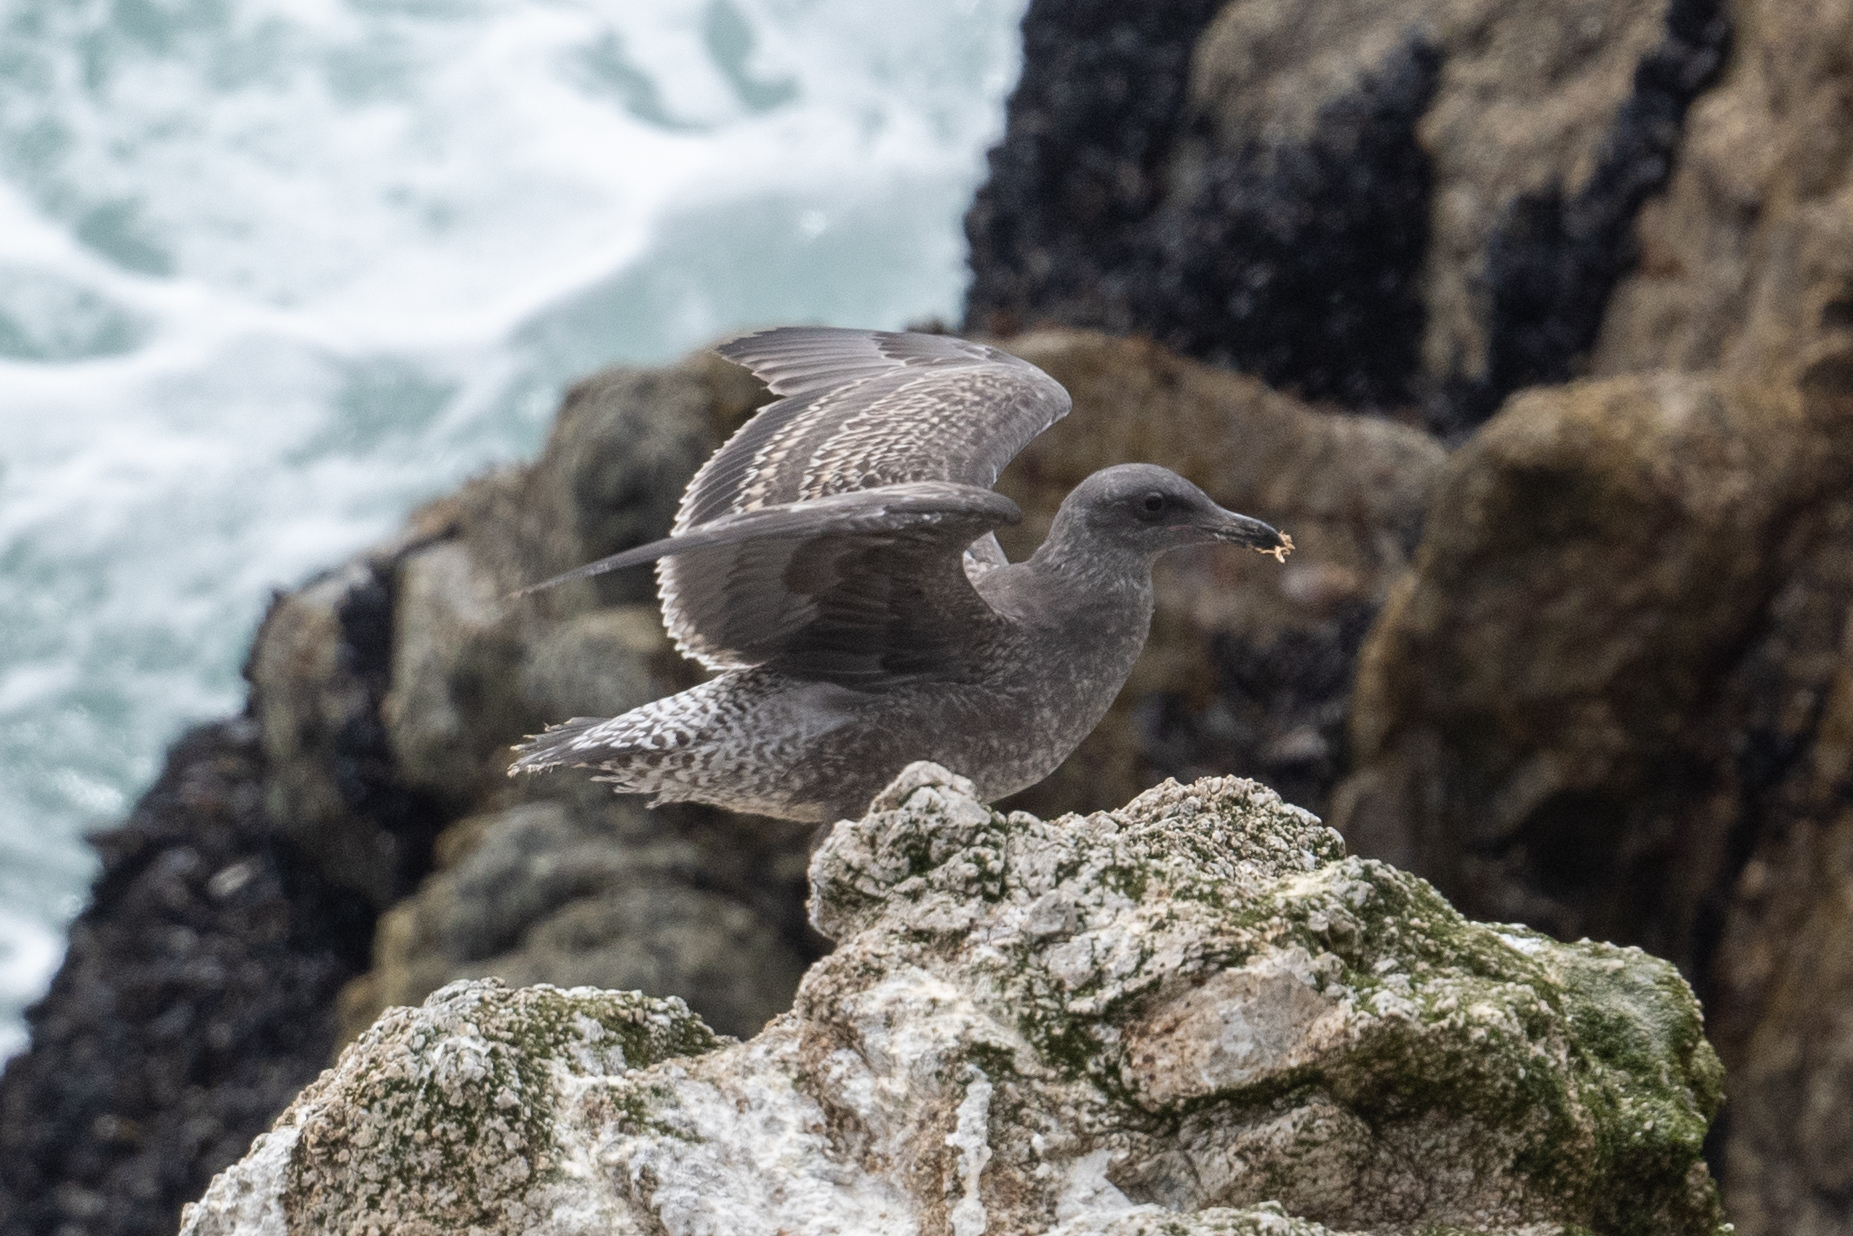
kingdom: Animalia
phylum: Chordata
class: Aves
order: Charadriiformes
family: Laridae
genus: Larus
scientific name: Larus occidentalis
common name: Western gull
